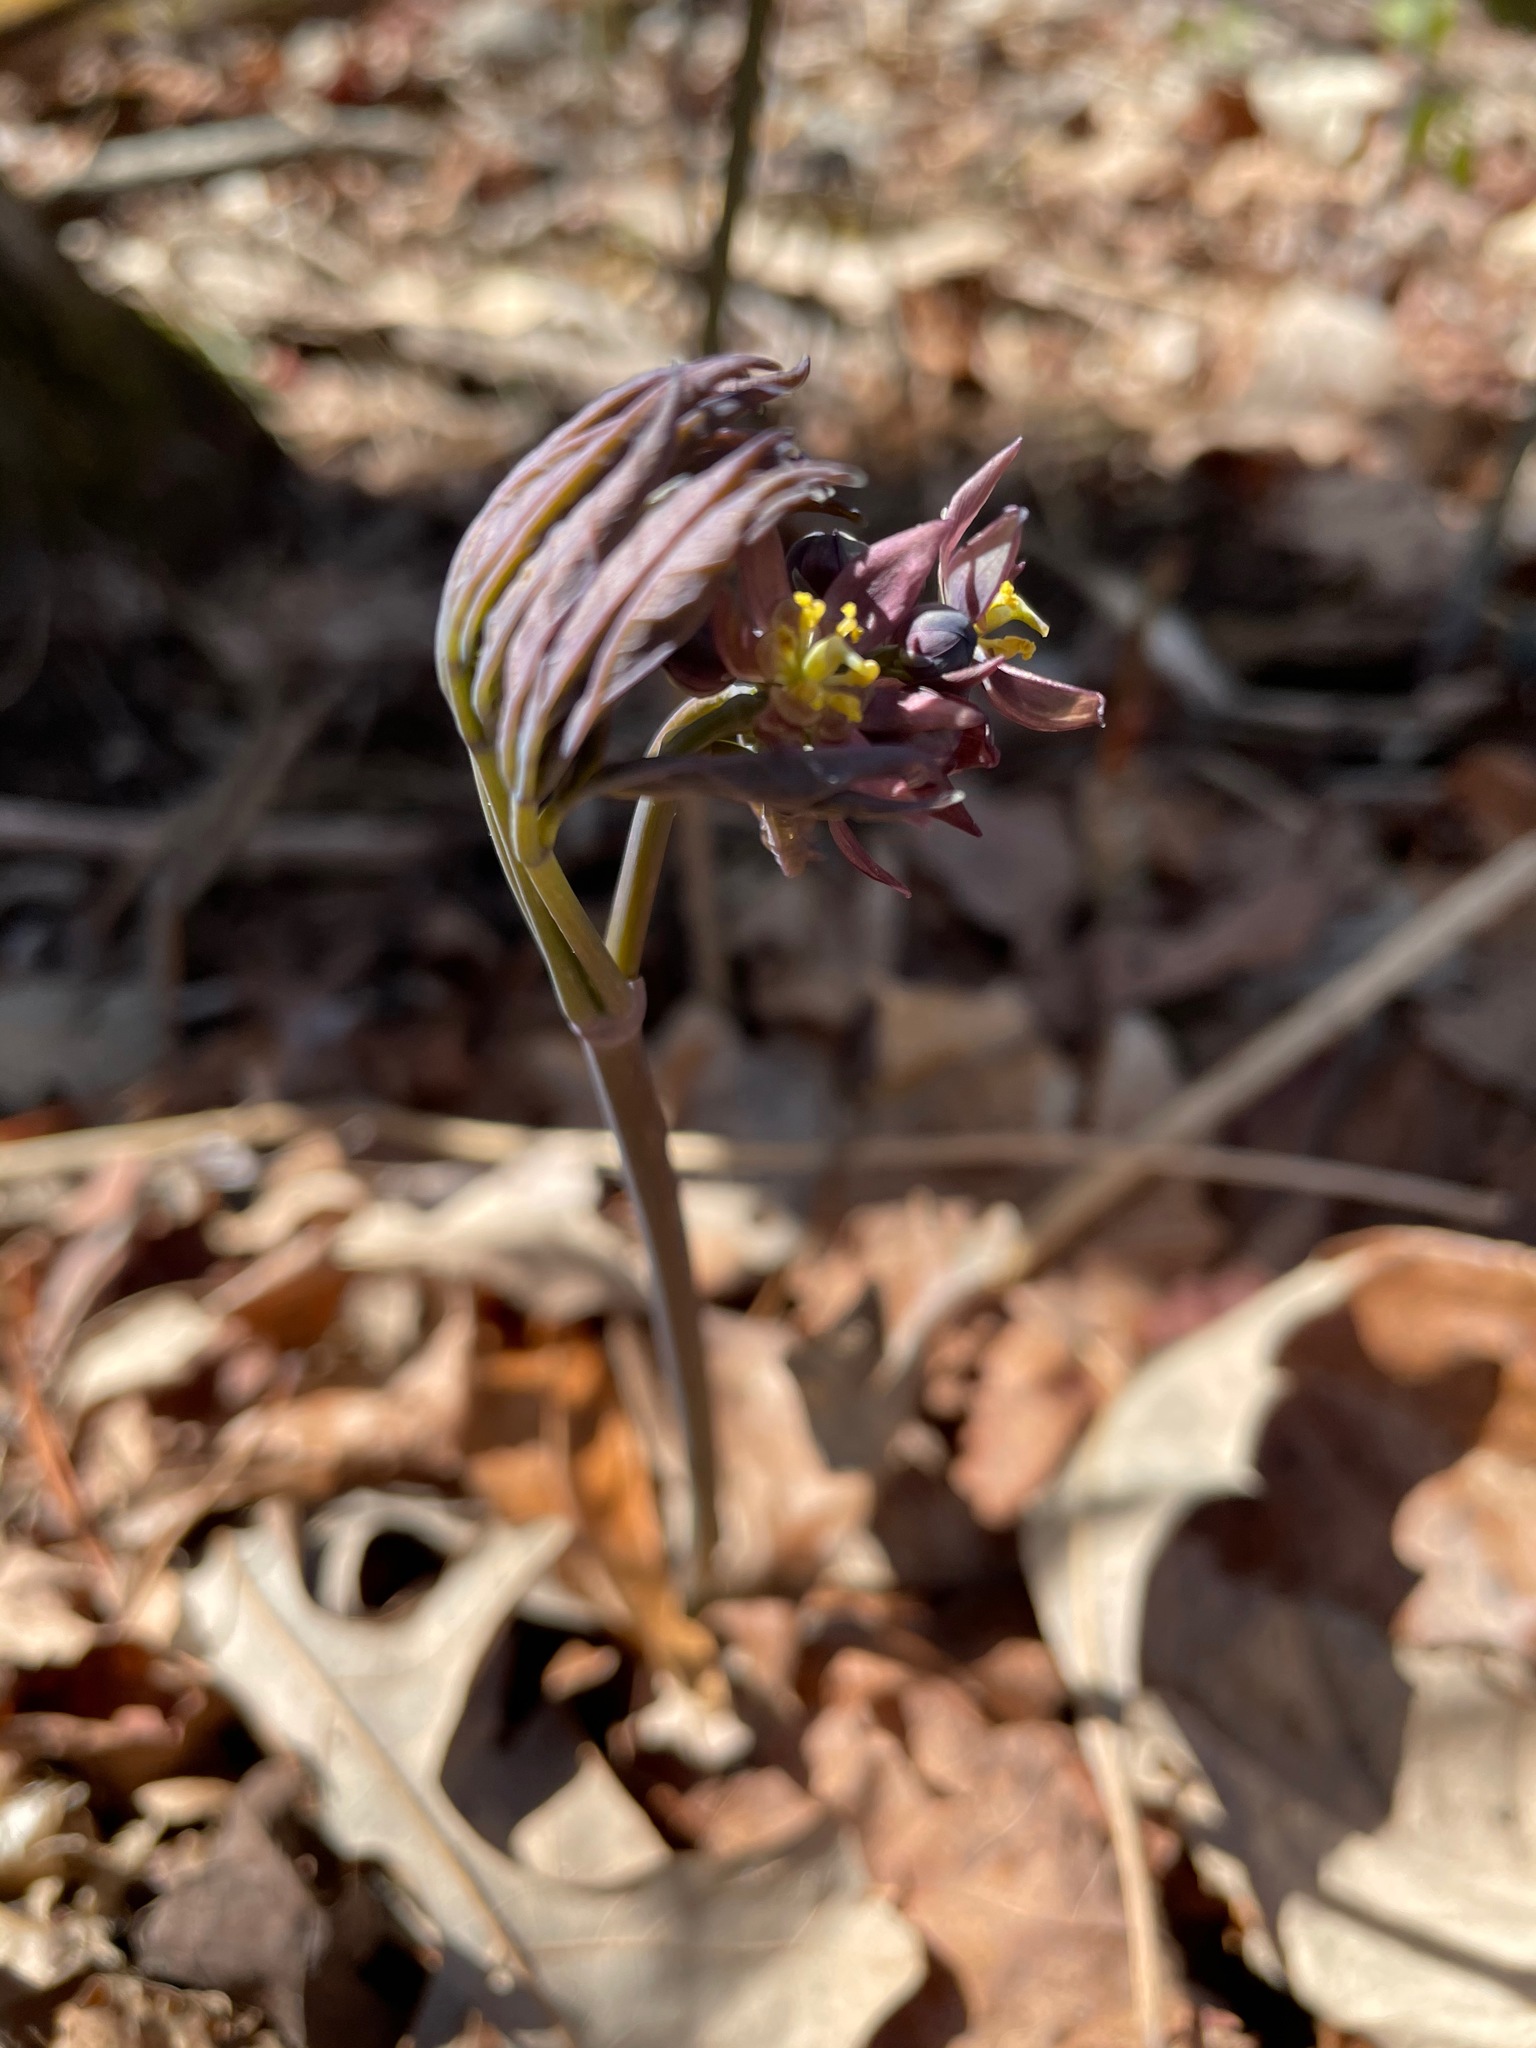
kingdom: Plantae
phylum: Tracheophyta
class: Magnoliopsida
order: Ranunculales
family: Berberidaceae
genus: Caulophyllum
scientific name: Caulophyllum giganteum
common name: Blue cohosh
